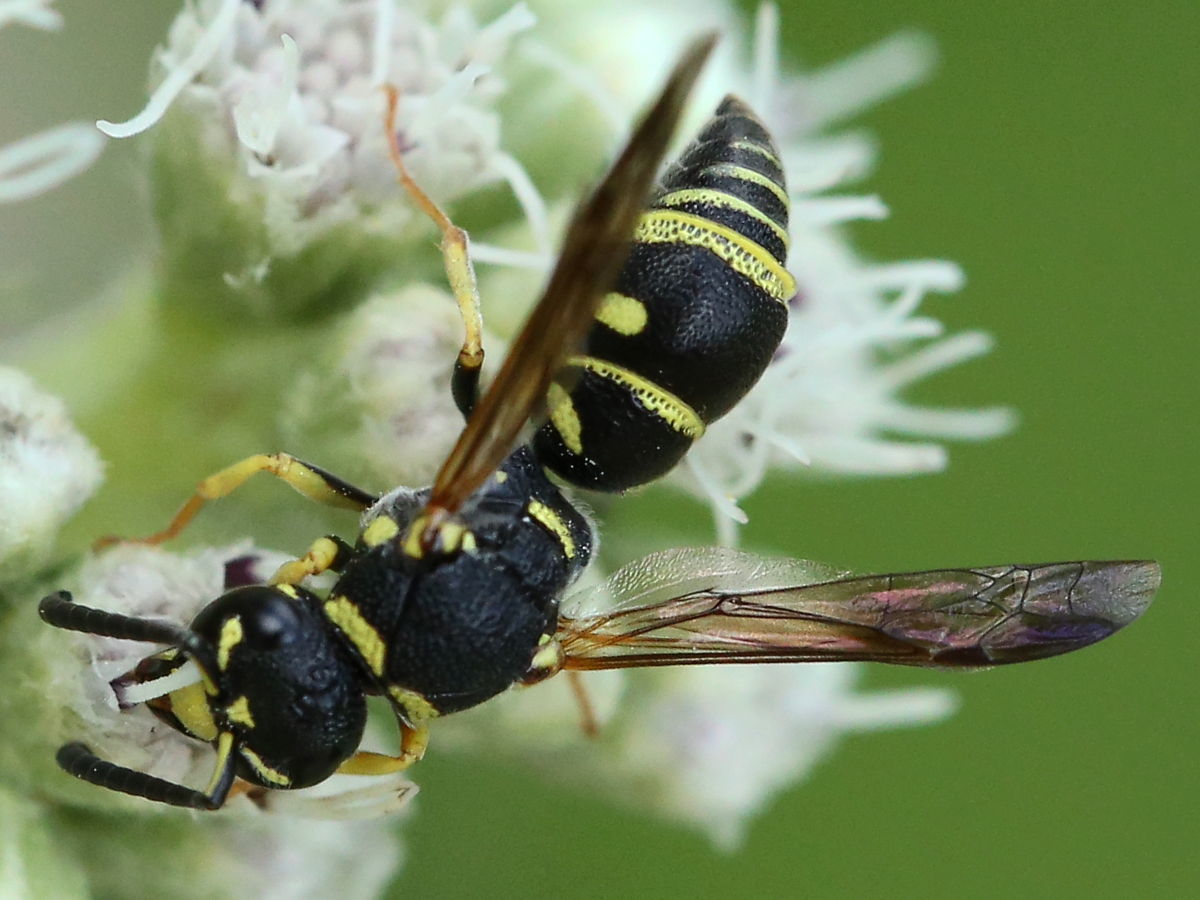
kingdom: Animalia
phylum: Arthropoda
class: Insecta
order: Hymenoptera
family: Eumenidae
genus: Parancistrocerus
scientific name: Parancistrocerus leionotus
